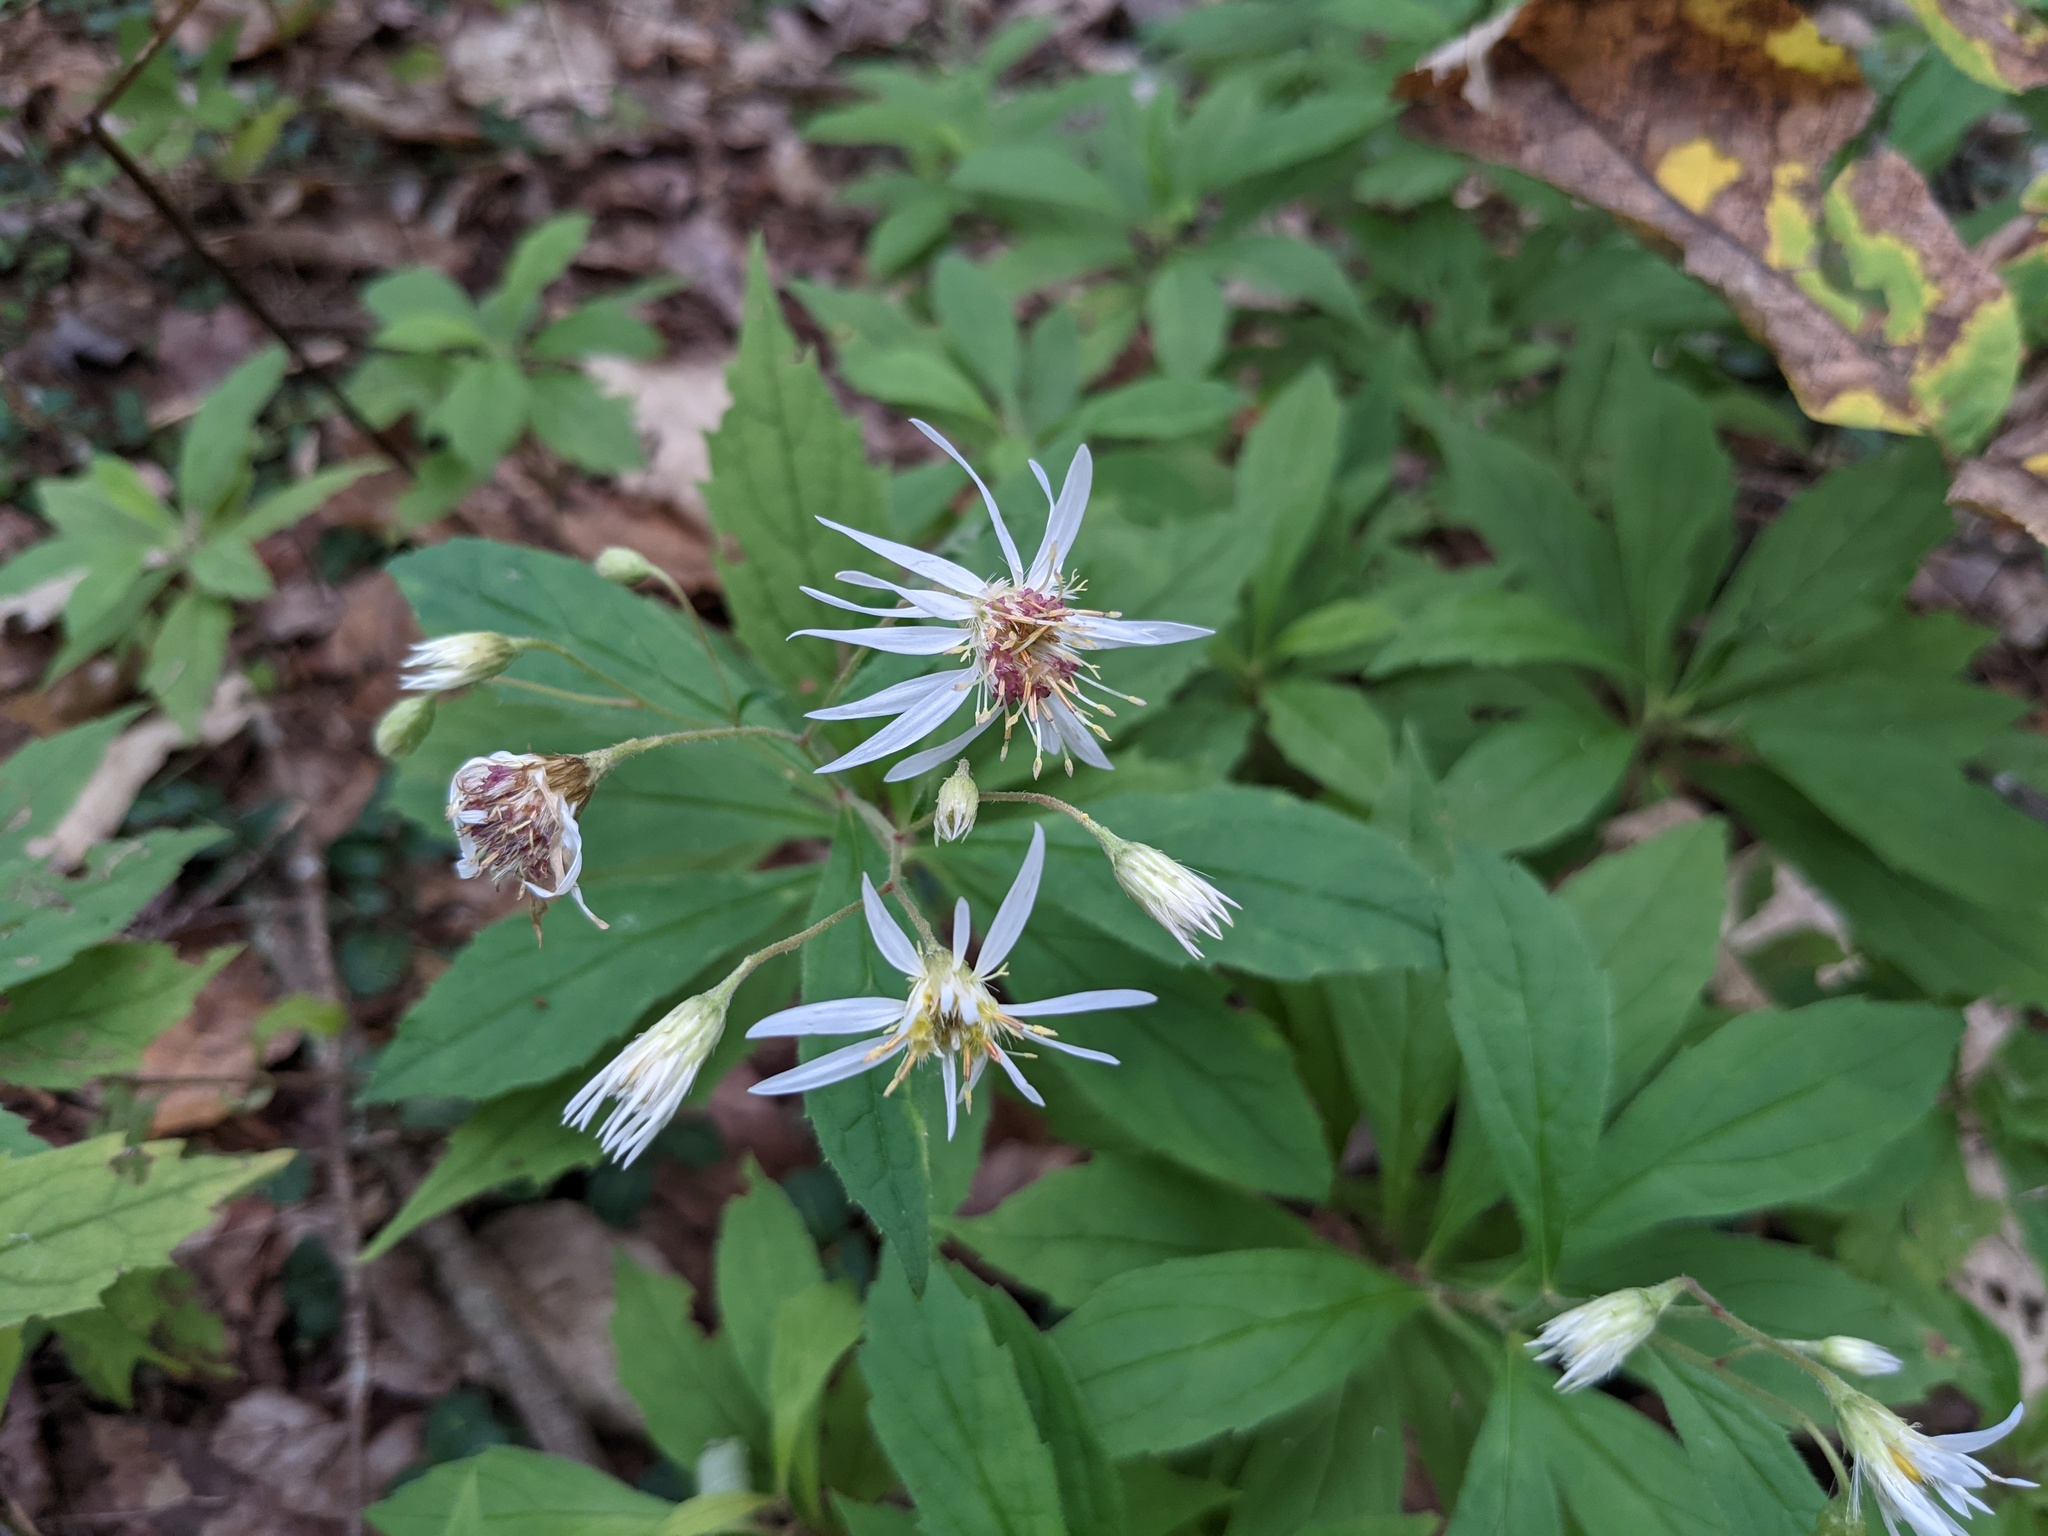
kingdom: Plantae
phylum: Tracheophyta
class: Magnoliopsida
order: Asterales
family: Asteraceae
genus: Oclemena
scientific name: Oclemena acuminata
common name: Mountain aster
